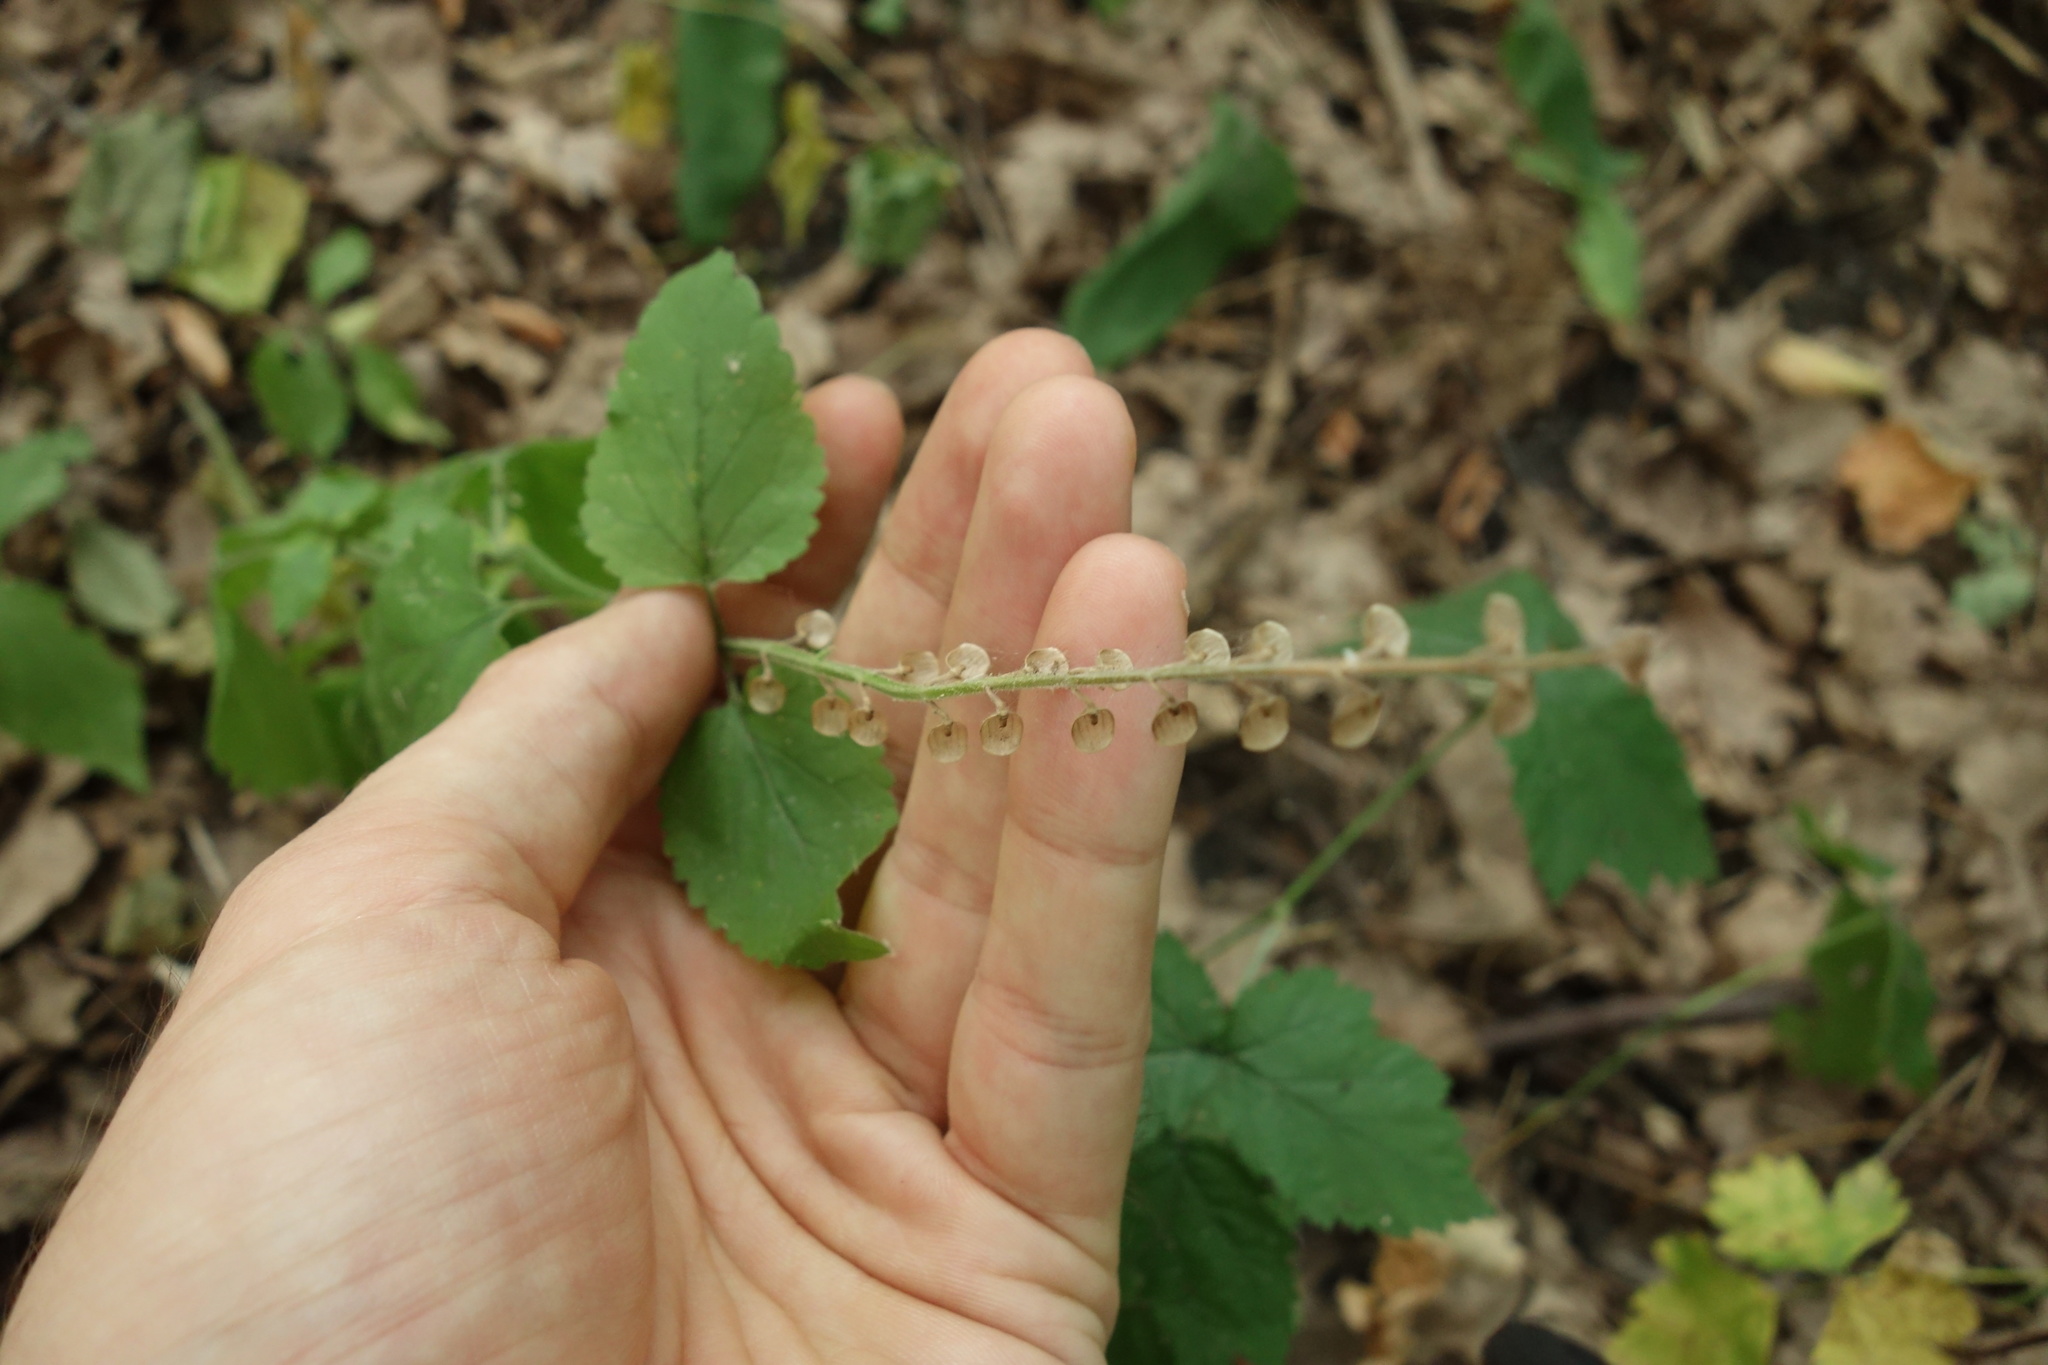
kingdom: Plantae
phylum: Tracheophyta
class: Magnoliopsida
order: Lamiales
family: Lamiaceae
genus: Scutellaria
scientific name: Scutellaria altissima
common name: Somerset skullcap
